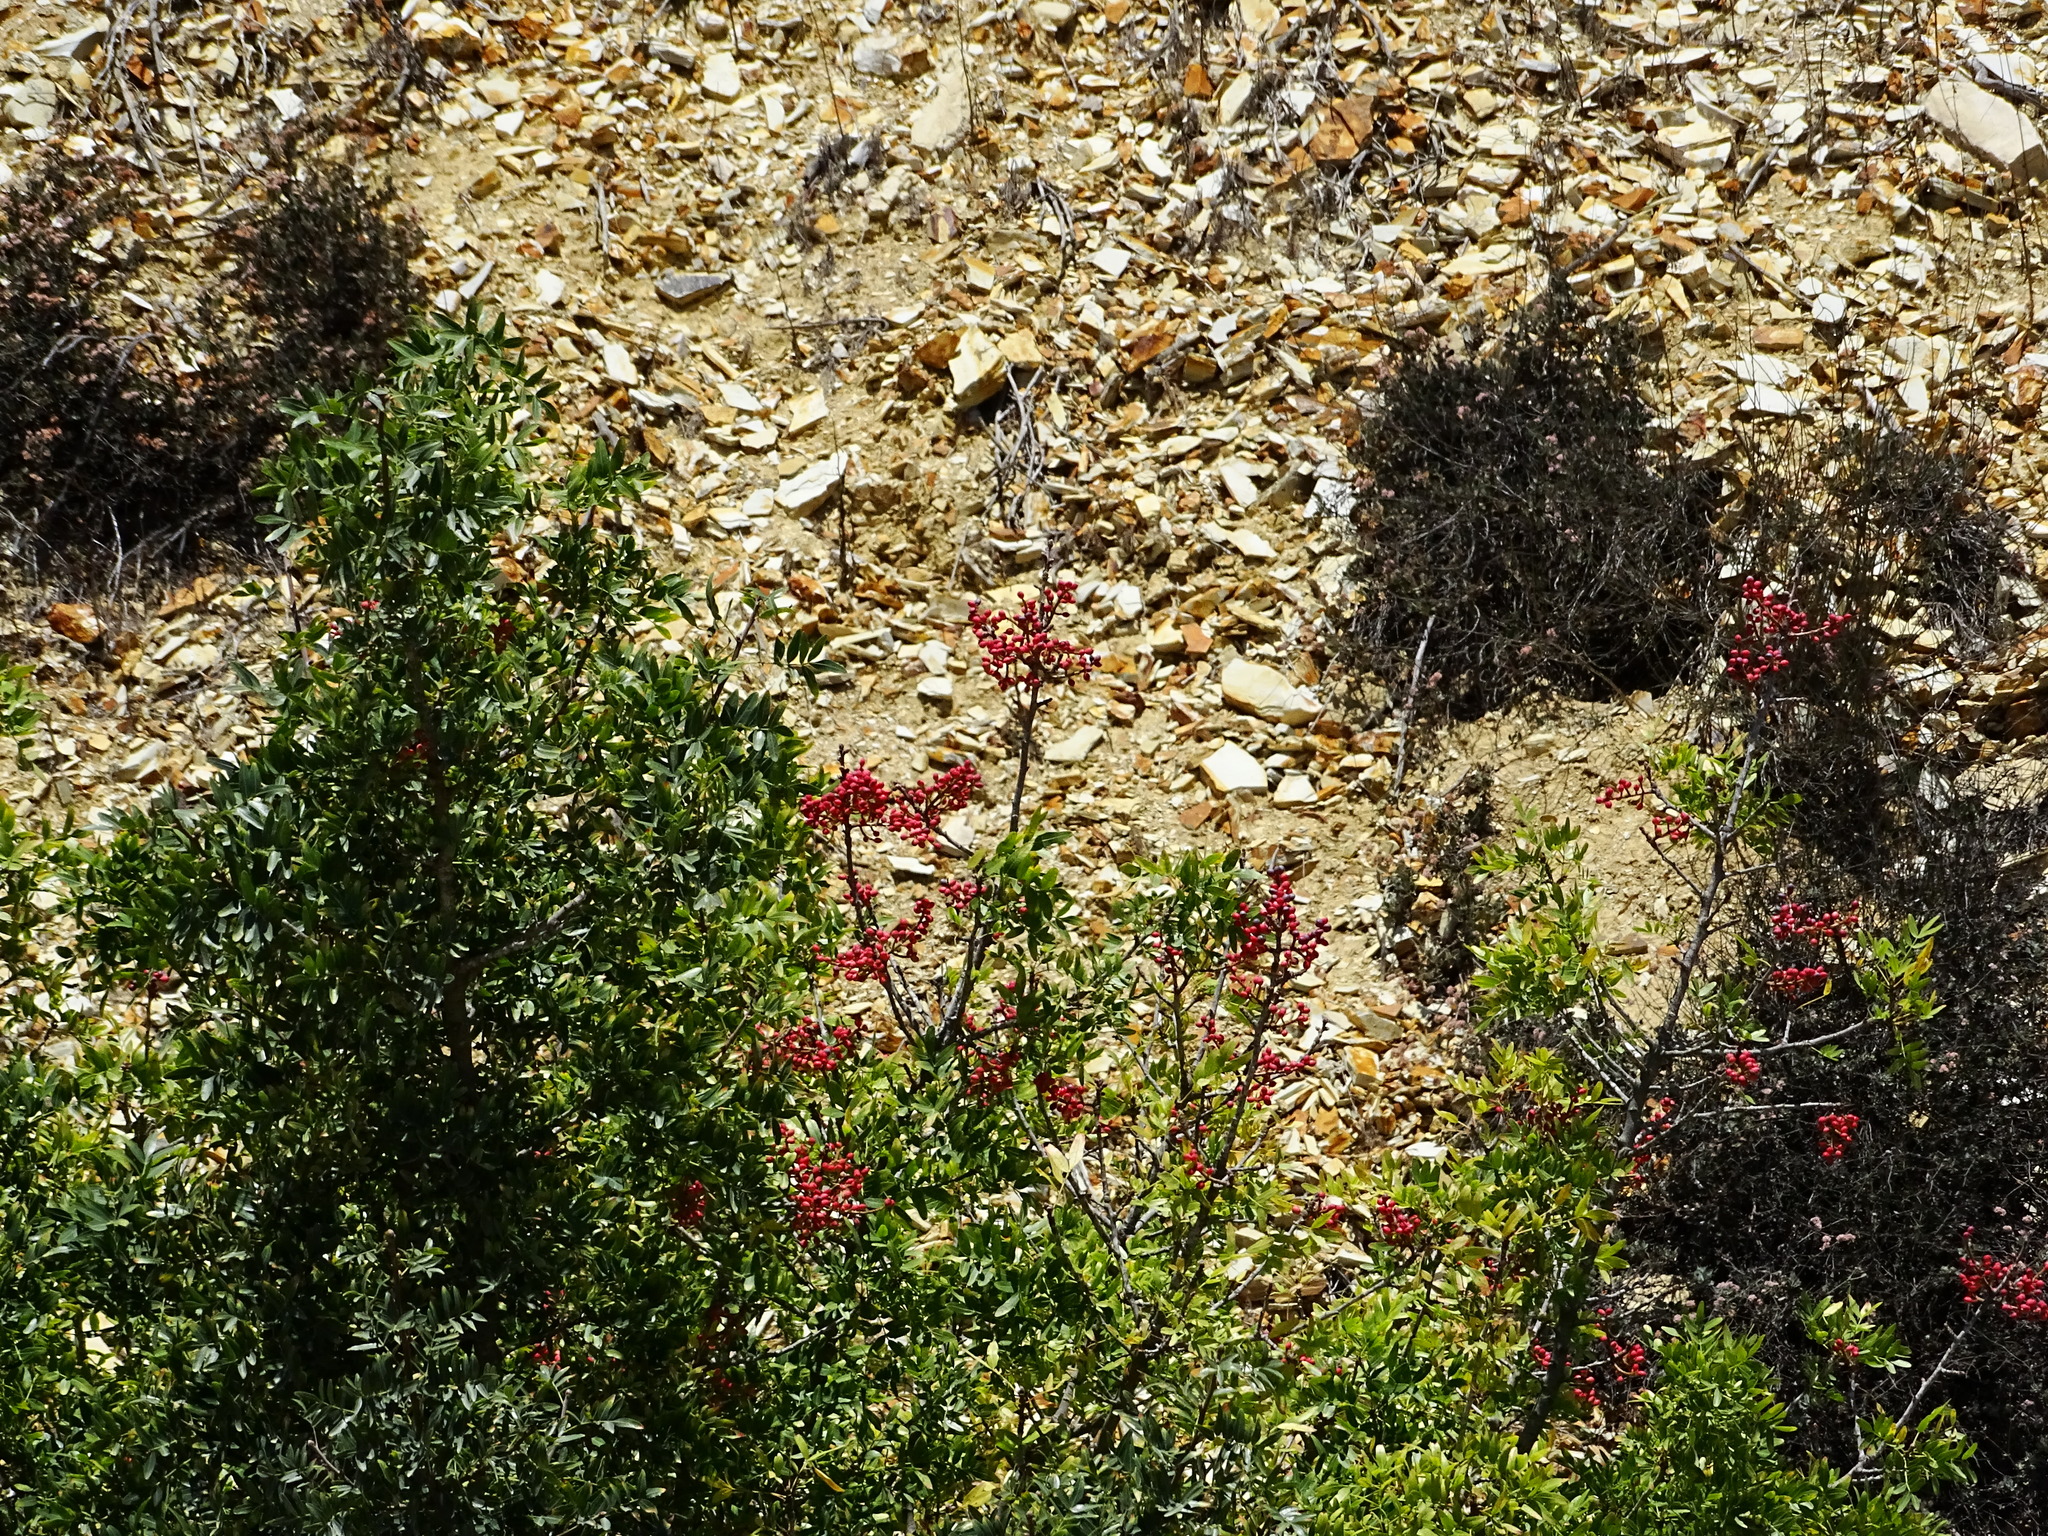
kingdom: Plantae
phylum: Tracheophyta
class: Magnoliopsida
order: Sapindales
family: Anacardiaceae
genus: Schinus
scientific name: Schinus terebinthifolia
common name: Brazilian peppertree
